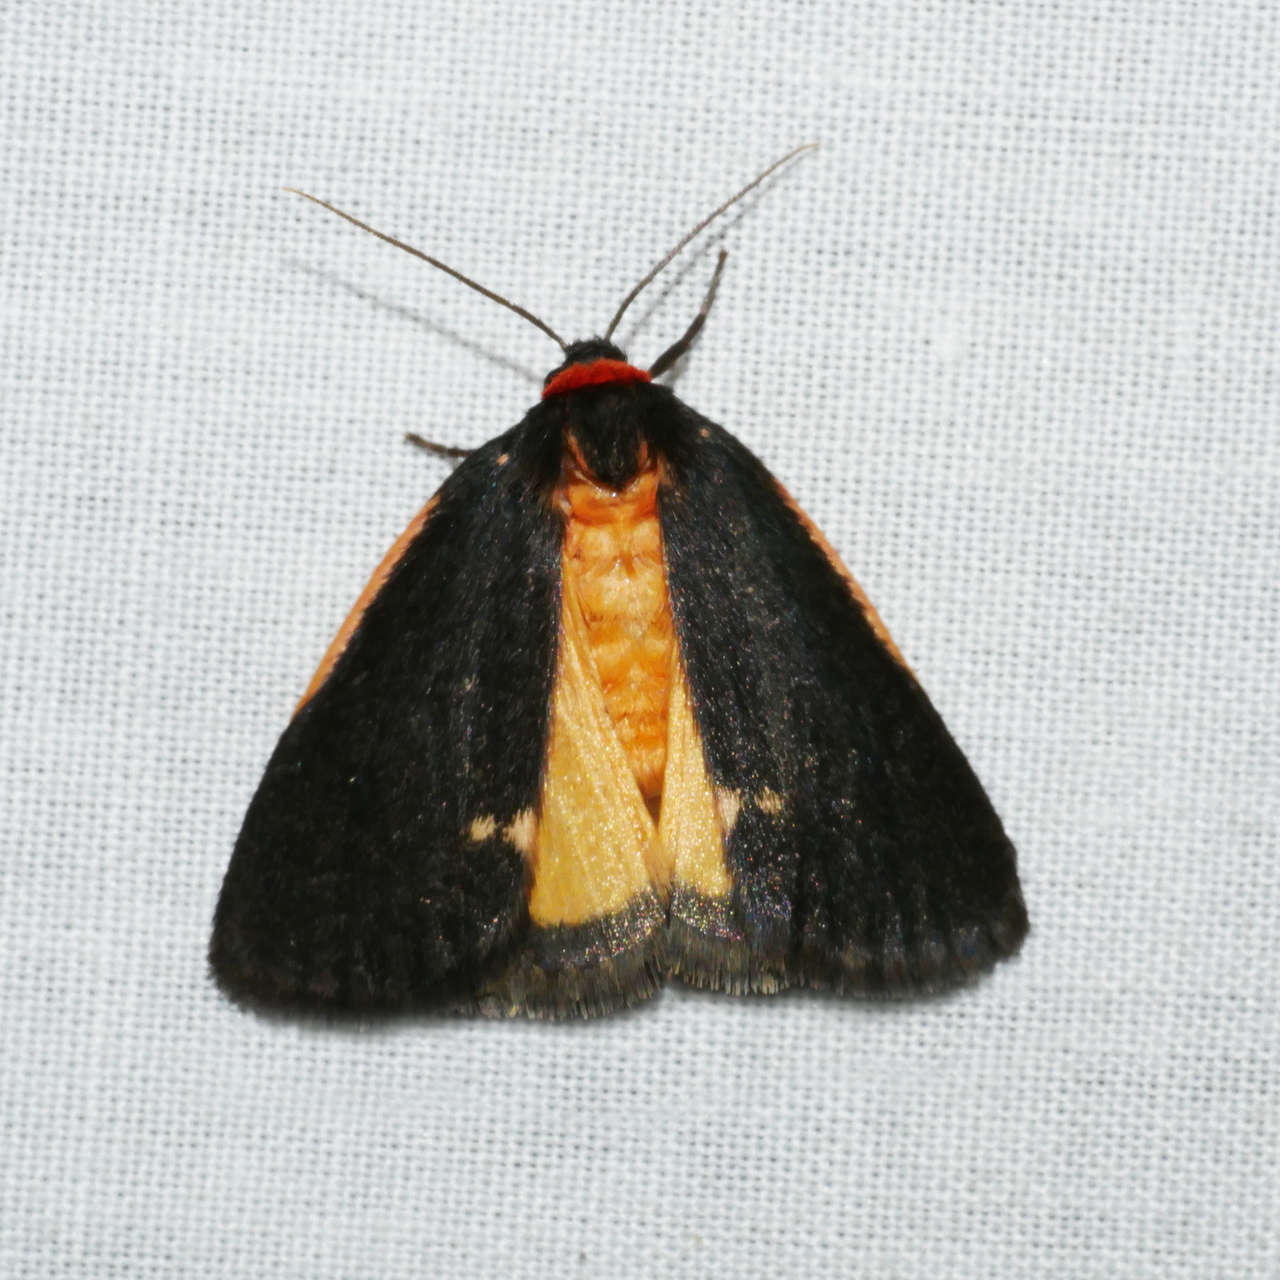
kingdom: Animalia
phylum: Arthropoda
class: Insecta
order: Lepidoptera
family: Erebidae
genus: Castulo
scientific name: Castulo doubledayi
